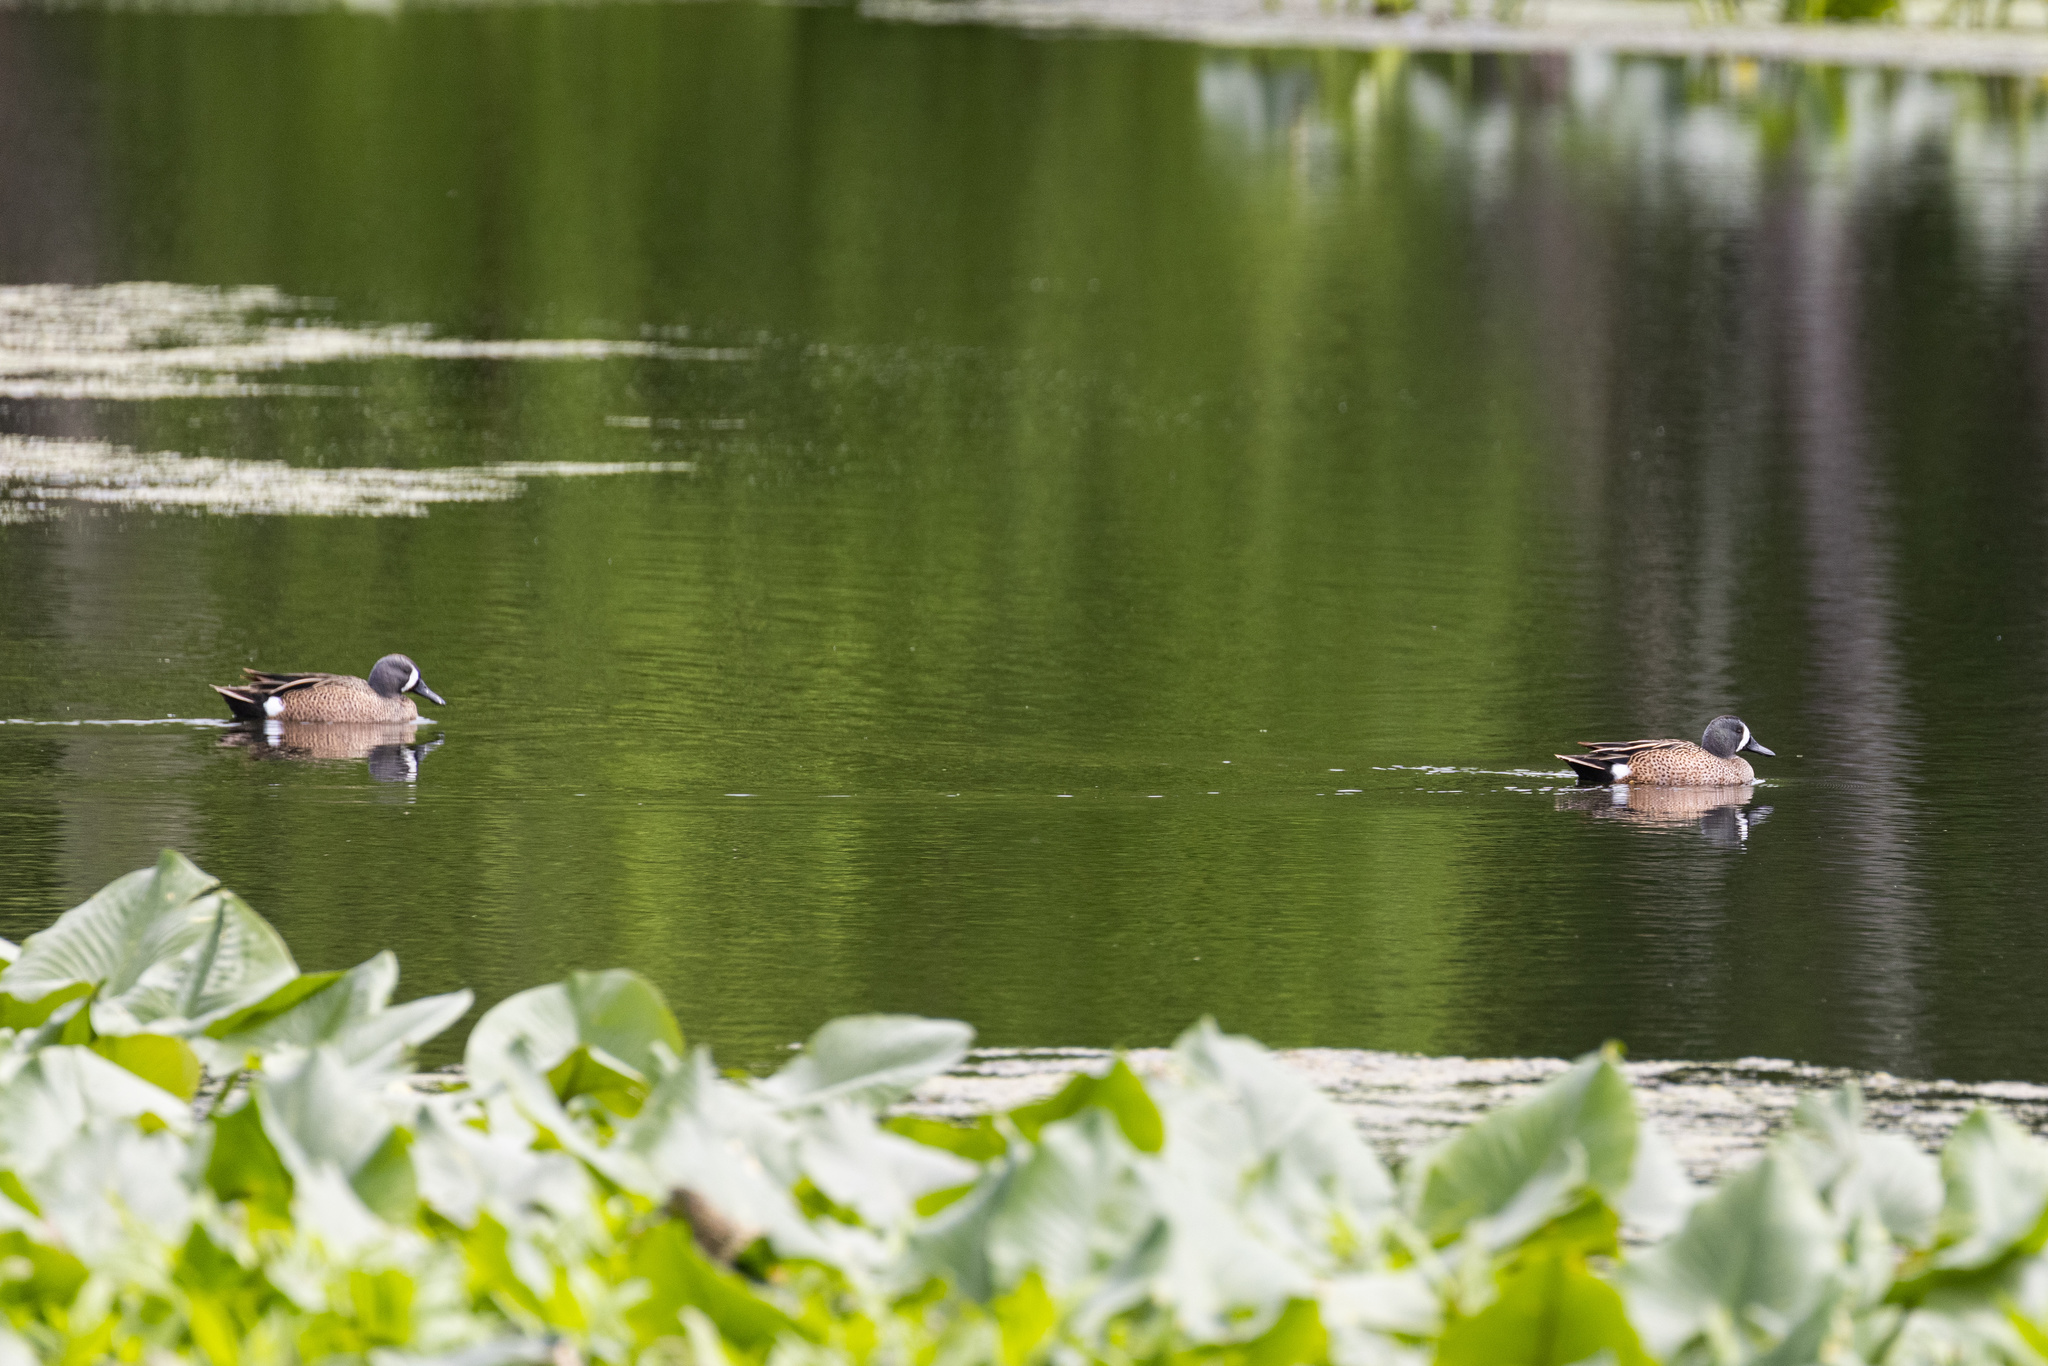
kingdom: Animalia
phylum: Chordata
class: Aves
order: Anseriformes
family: Anatidae
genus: Spatula
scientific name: Spatula discors
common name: Blue-winged teal
